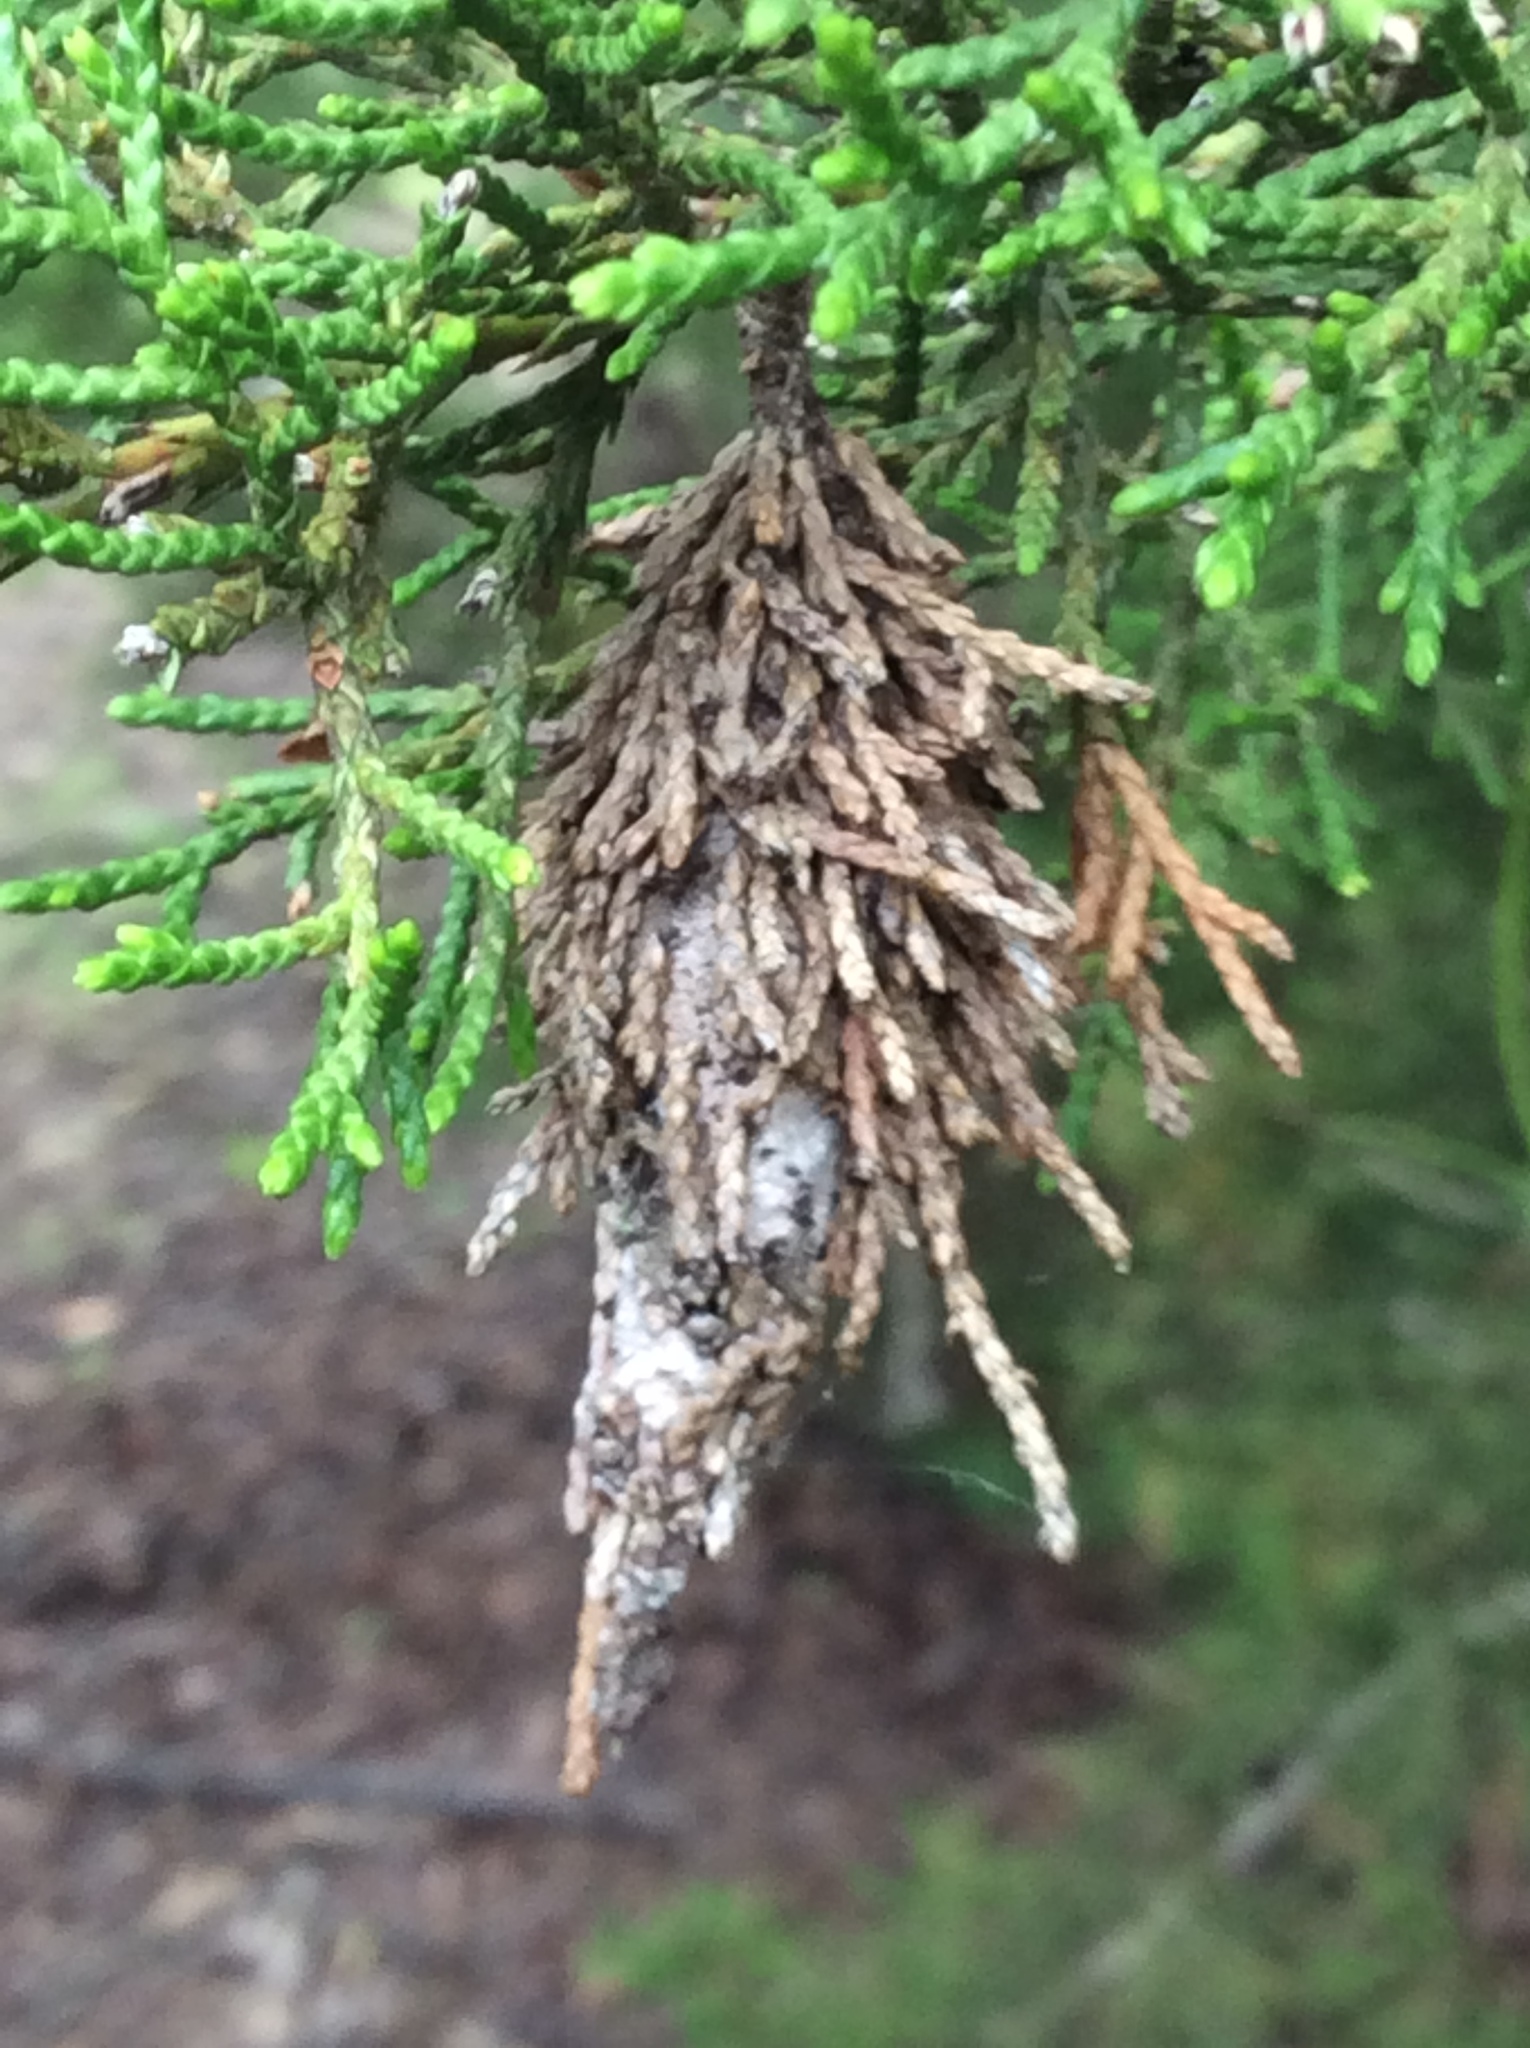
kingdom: Animalia
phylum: Arthropoda
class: Insecta
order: Lepidoptera
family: Psychidae
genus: Thyridopteryx
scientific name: Thyridopteryx ephemeraeformis
